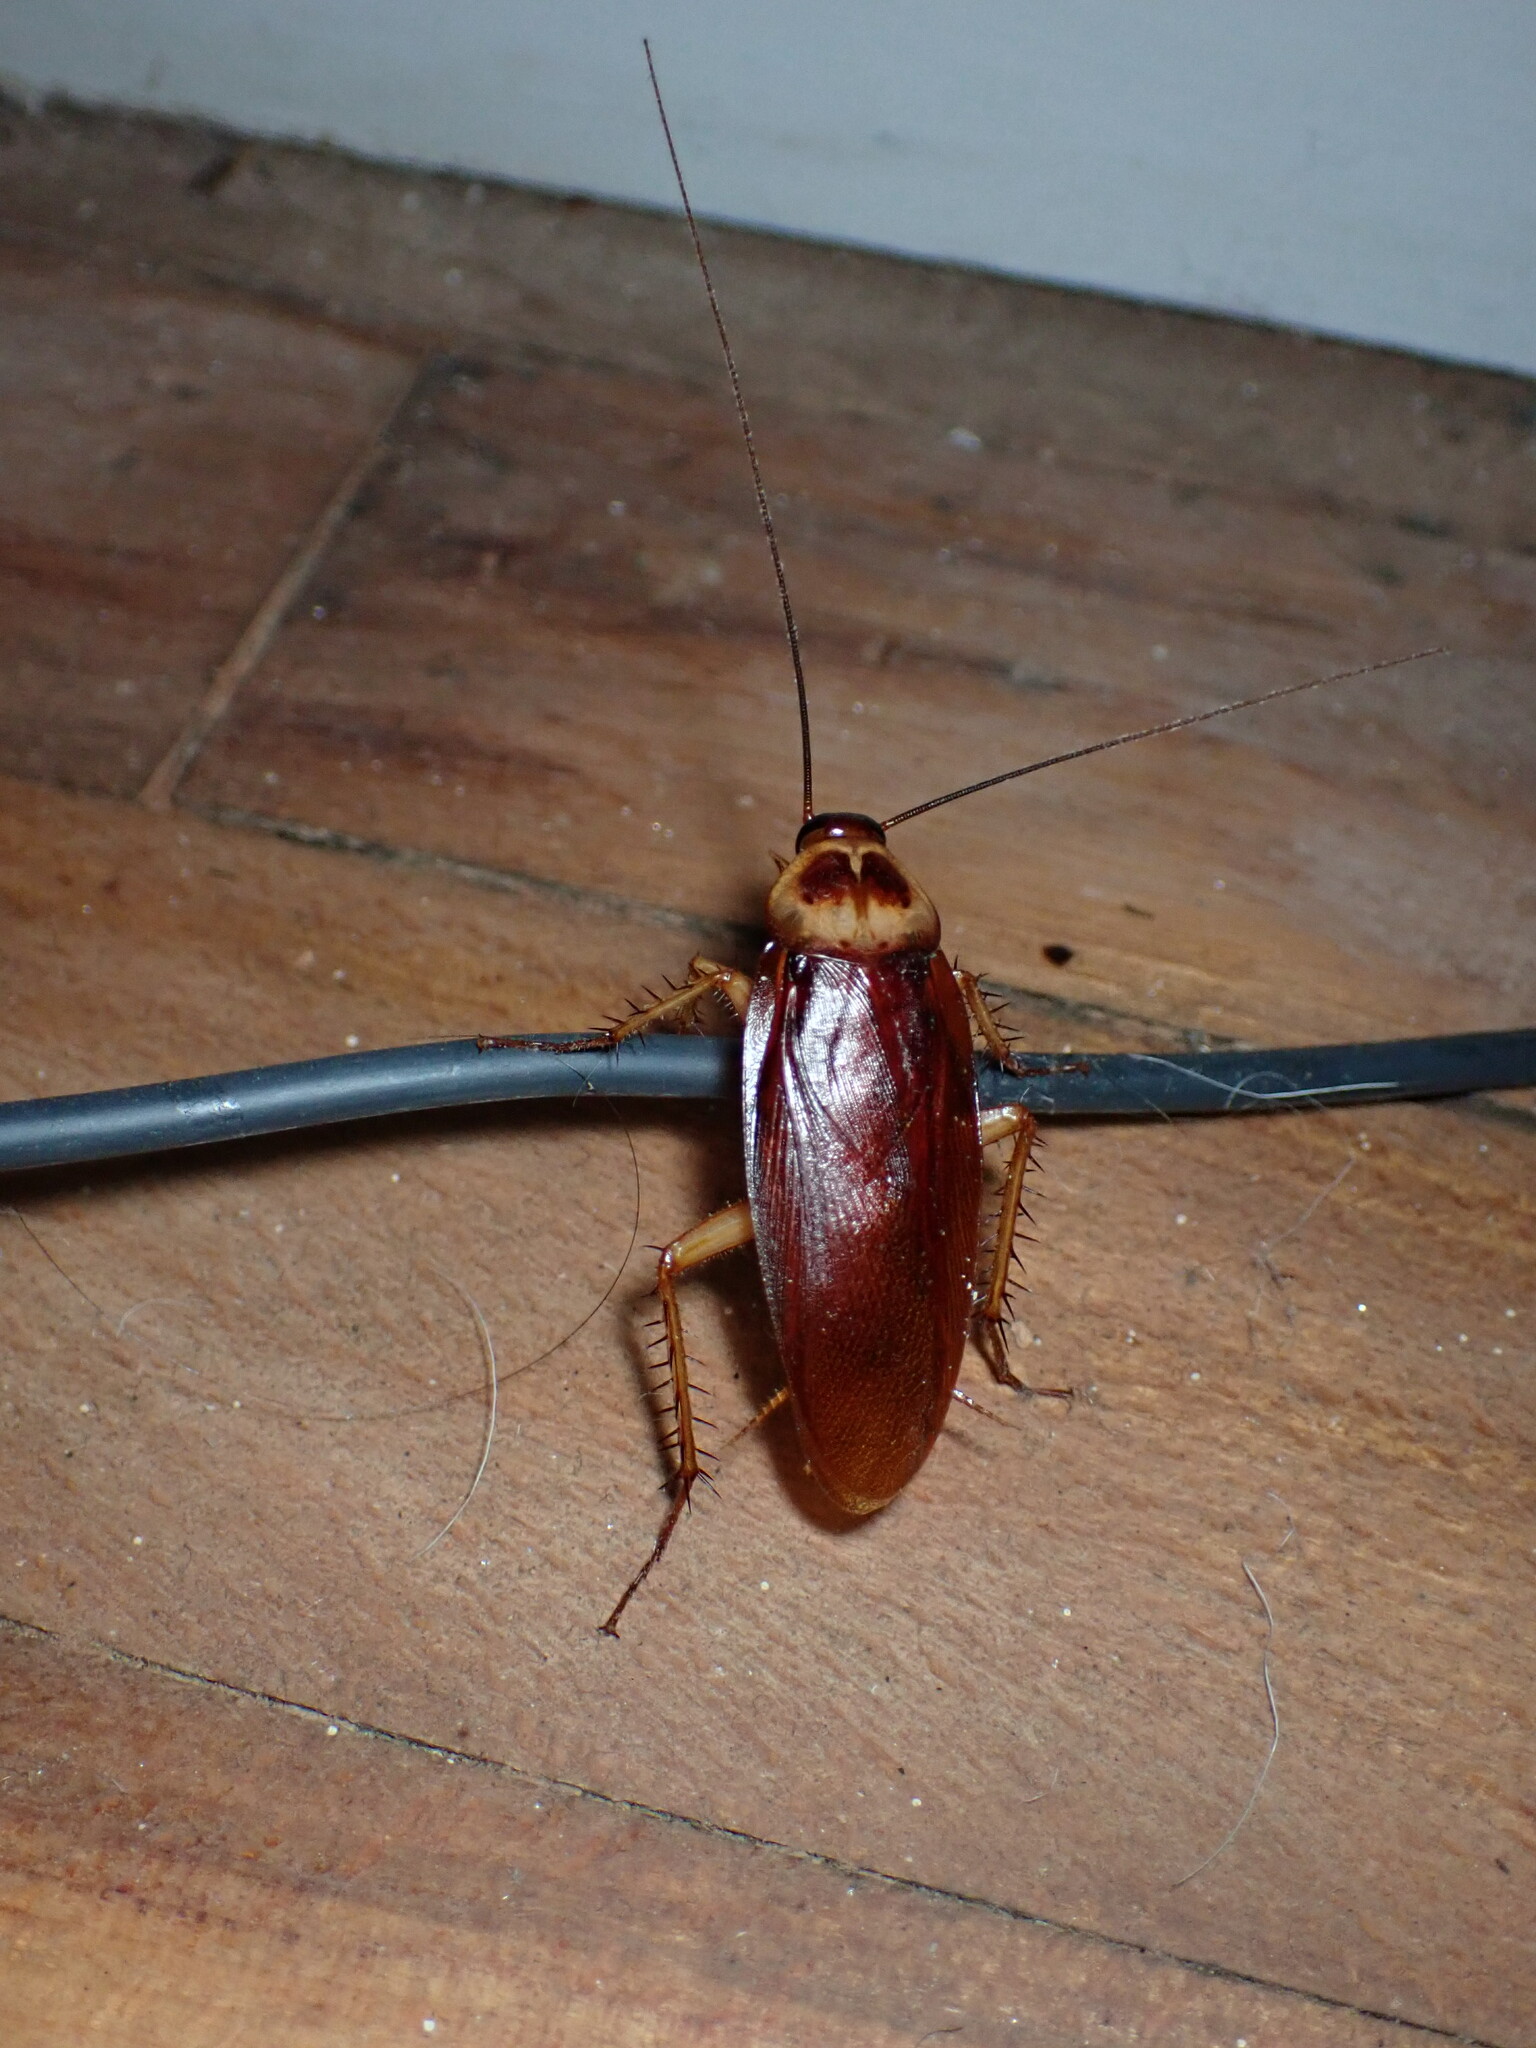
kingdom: Animalia
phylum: Arthropoda
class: Insecta
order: Blattodea
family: Blattidae
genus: Periplaneta
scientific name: Periplaneta americana
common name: American cockroach
